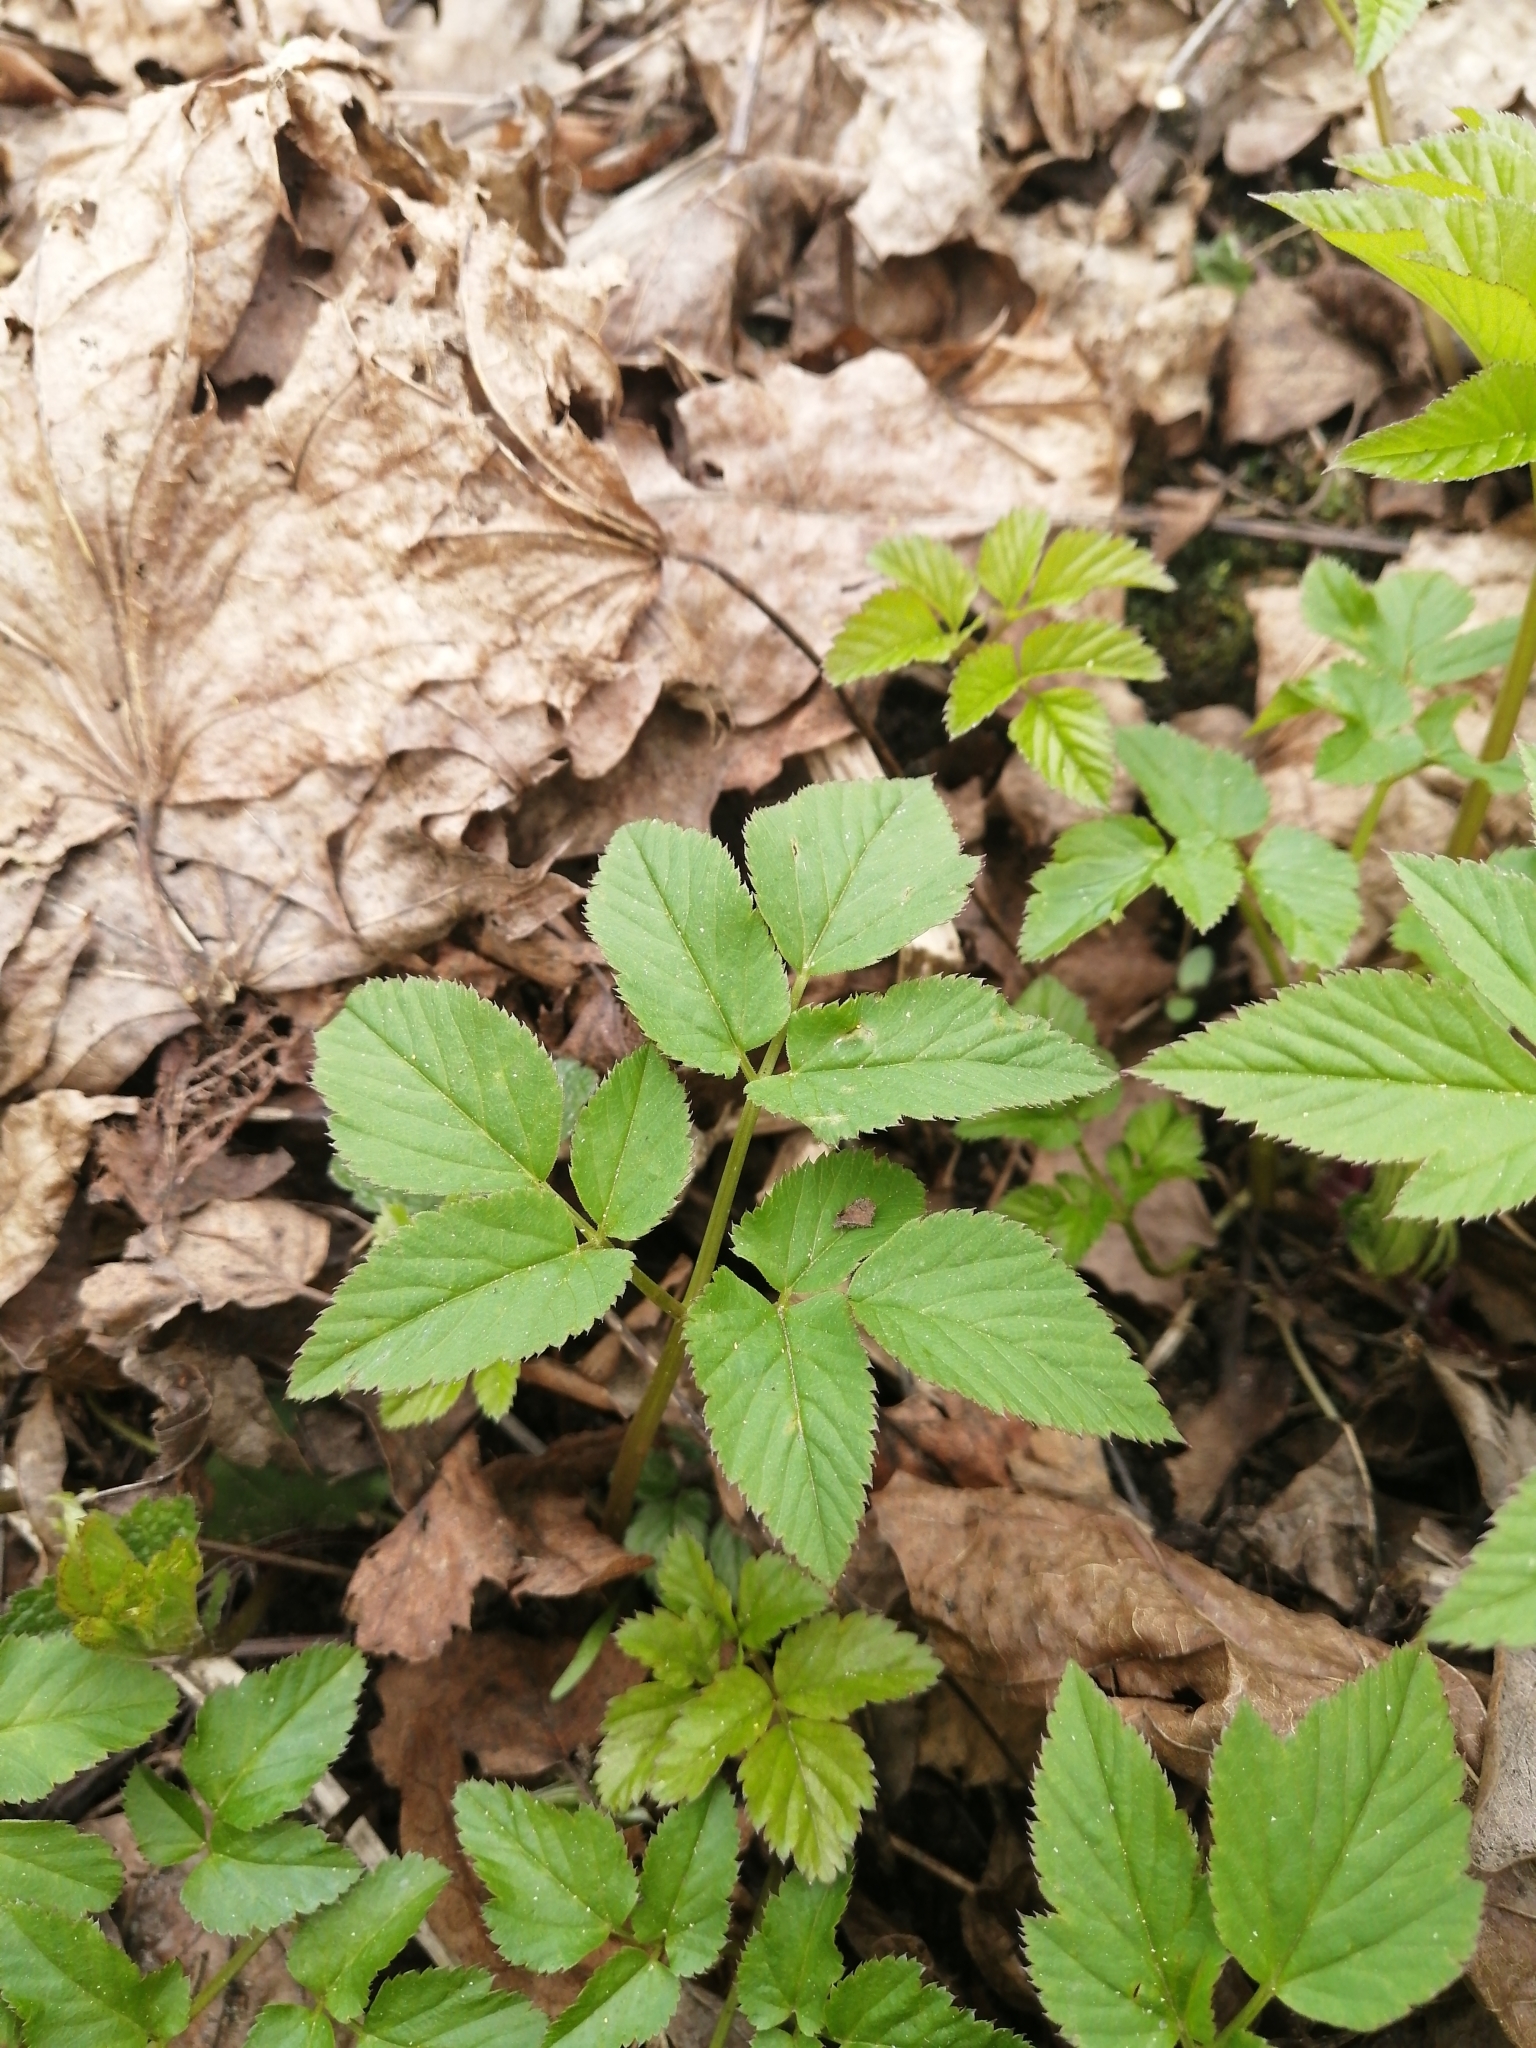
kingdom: Plantae
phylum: Tracheophyta
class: Magnoliopsida
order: Apiales
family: Apiaceae
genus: Aegopodium
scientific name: Aegopodium podagraria
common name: Ground-elder
